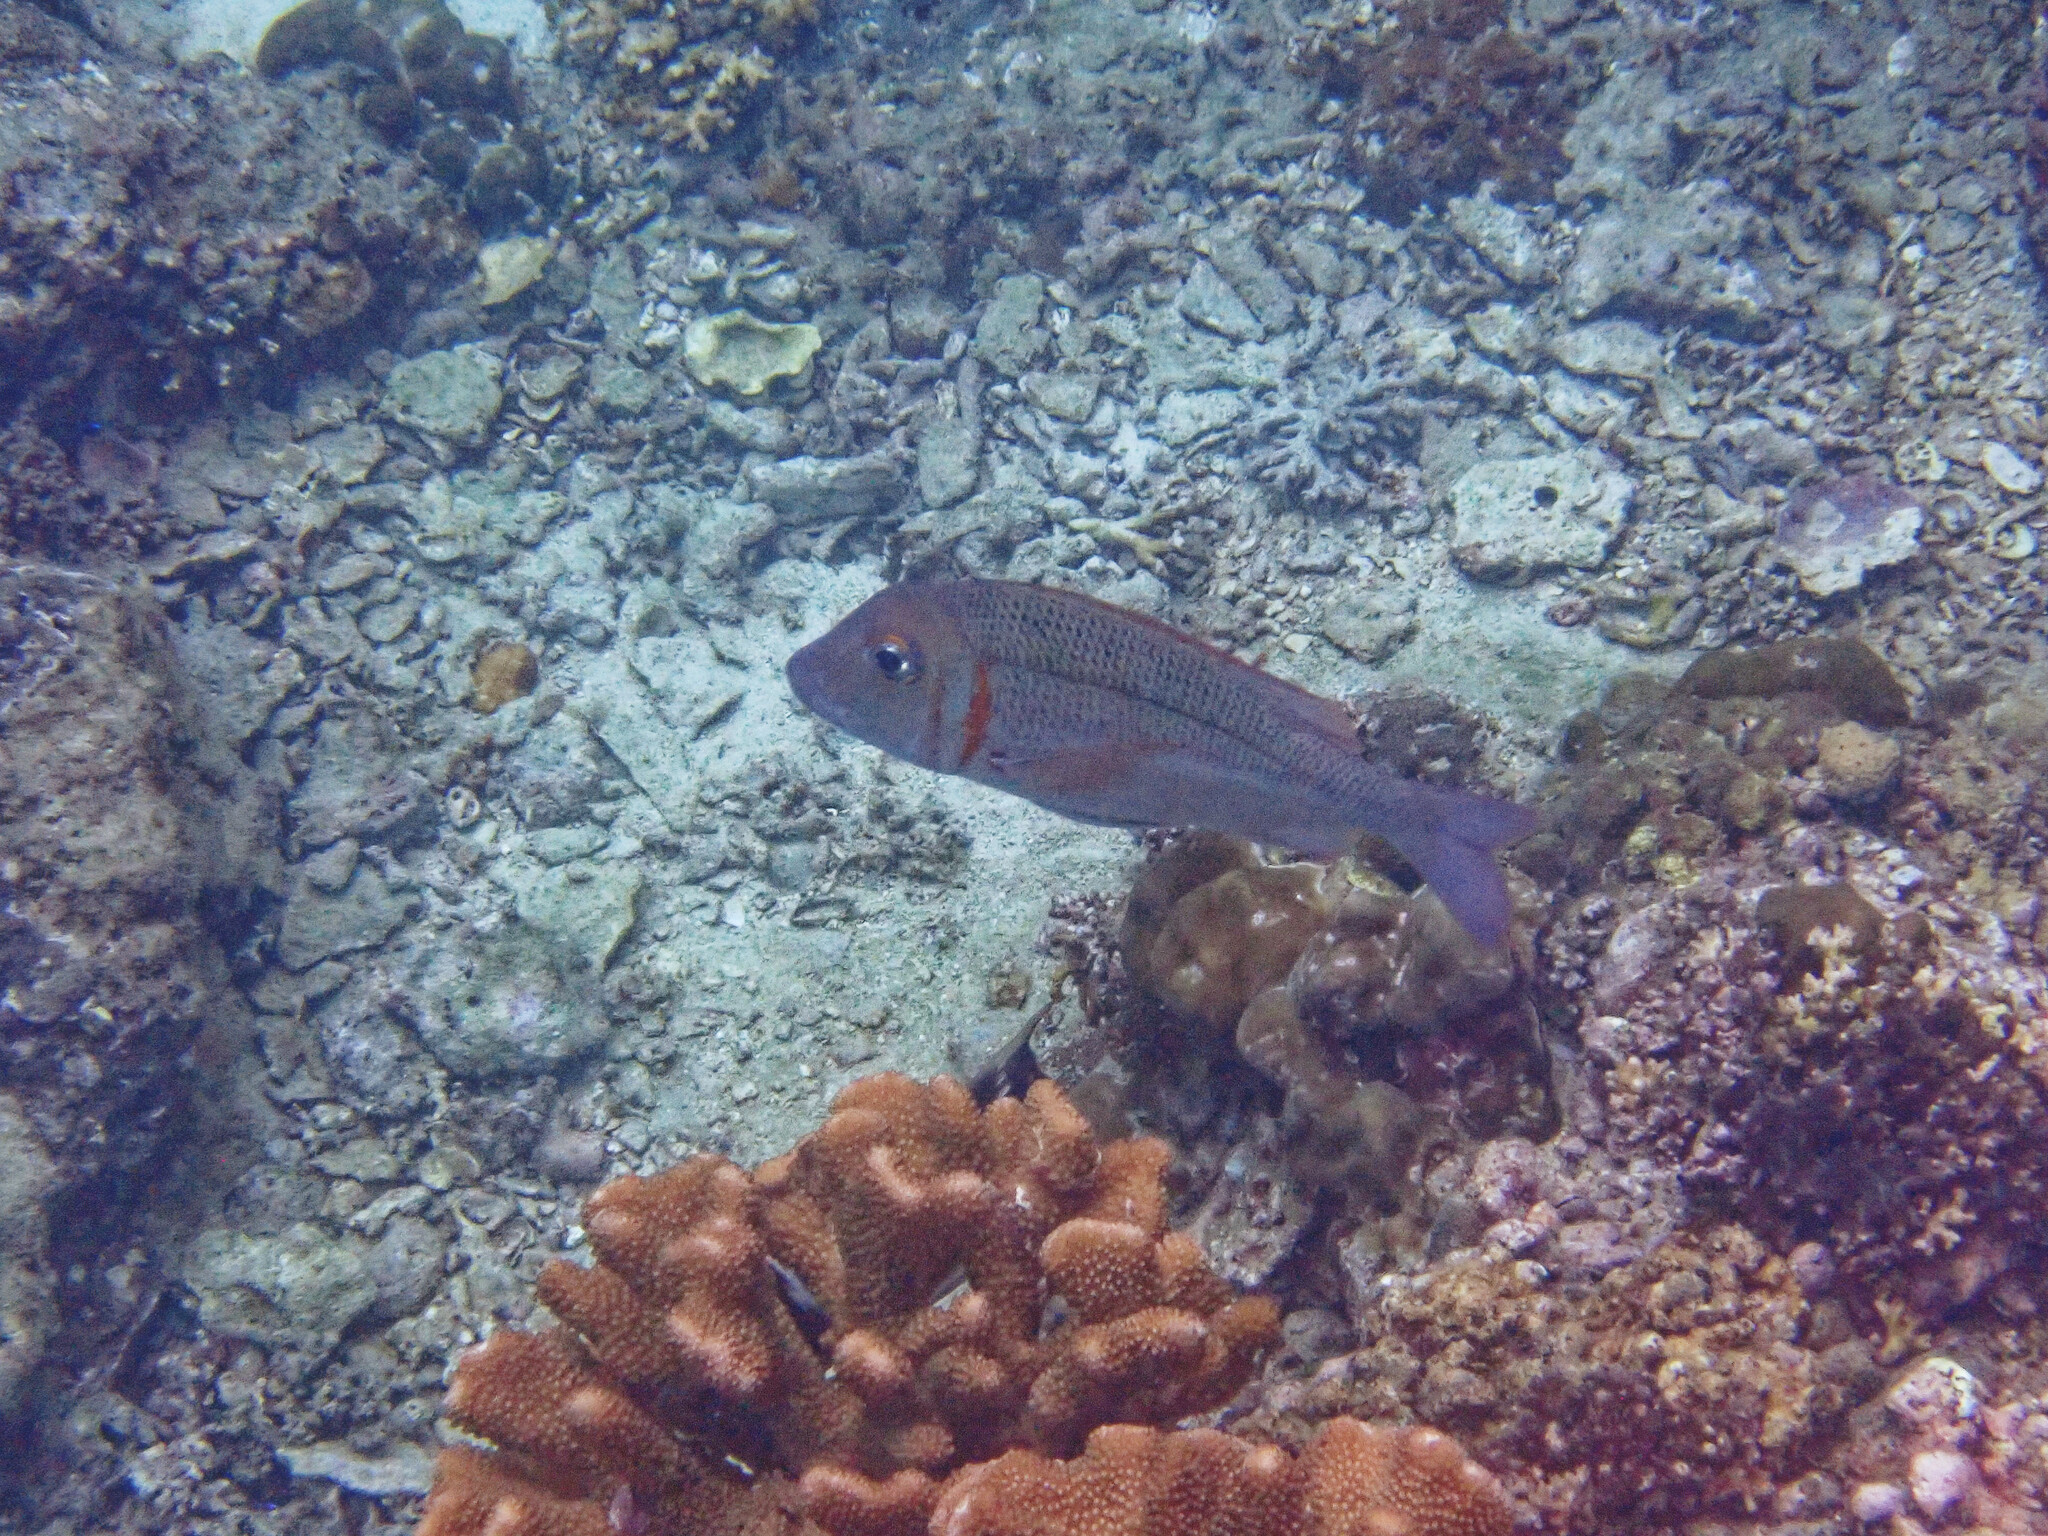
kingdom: Animalia
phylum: Chordata
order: Perciformes
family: Lethrinidae
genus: Lethrinus
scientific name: Lethrinus ornatus
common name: Ornate emperor
